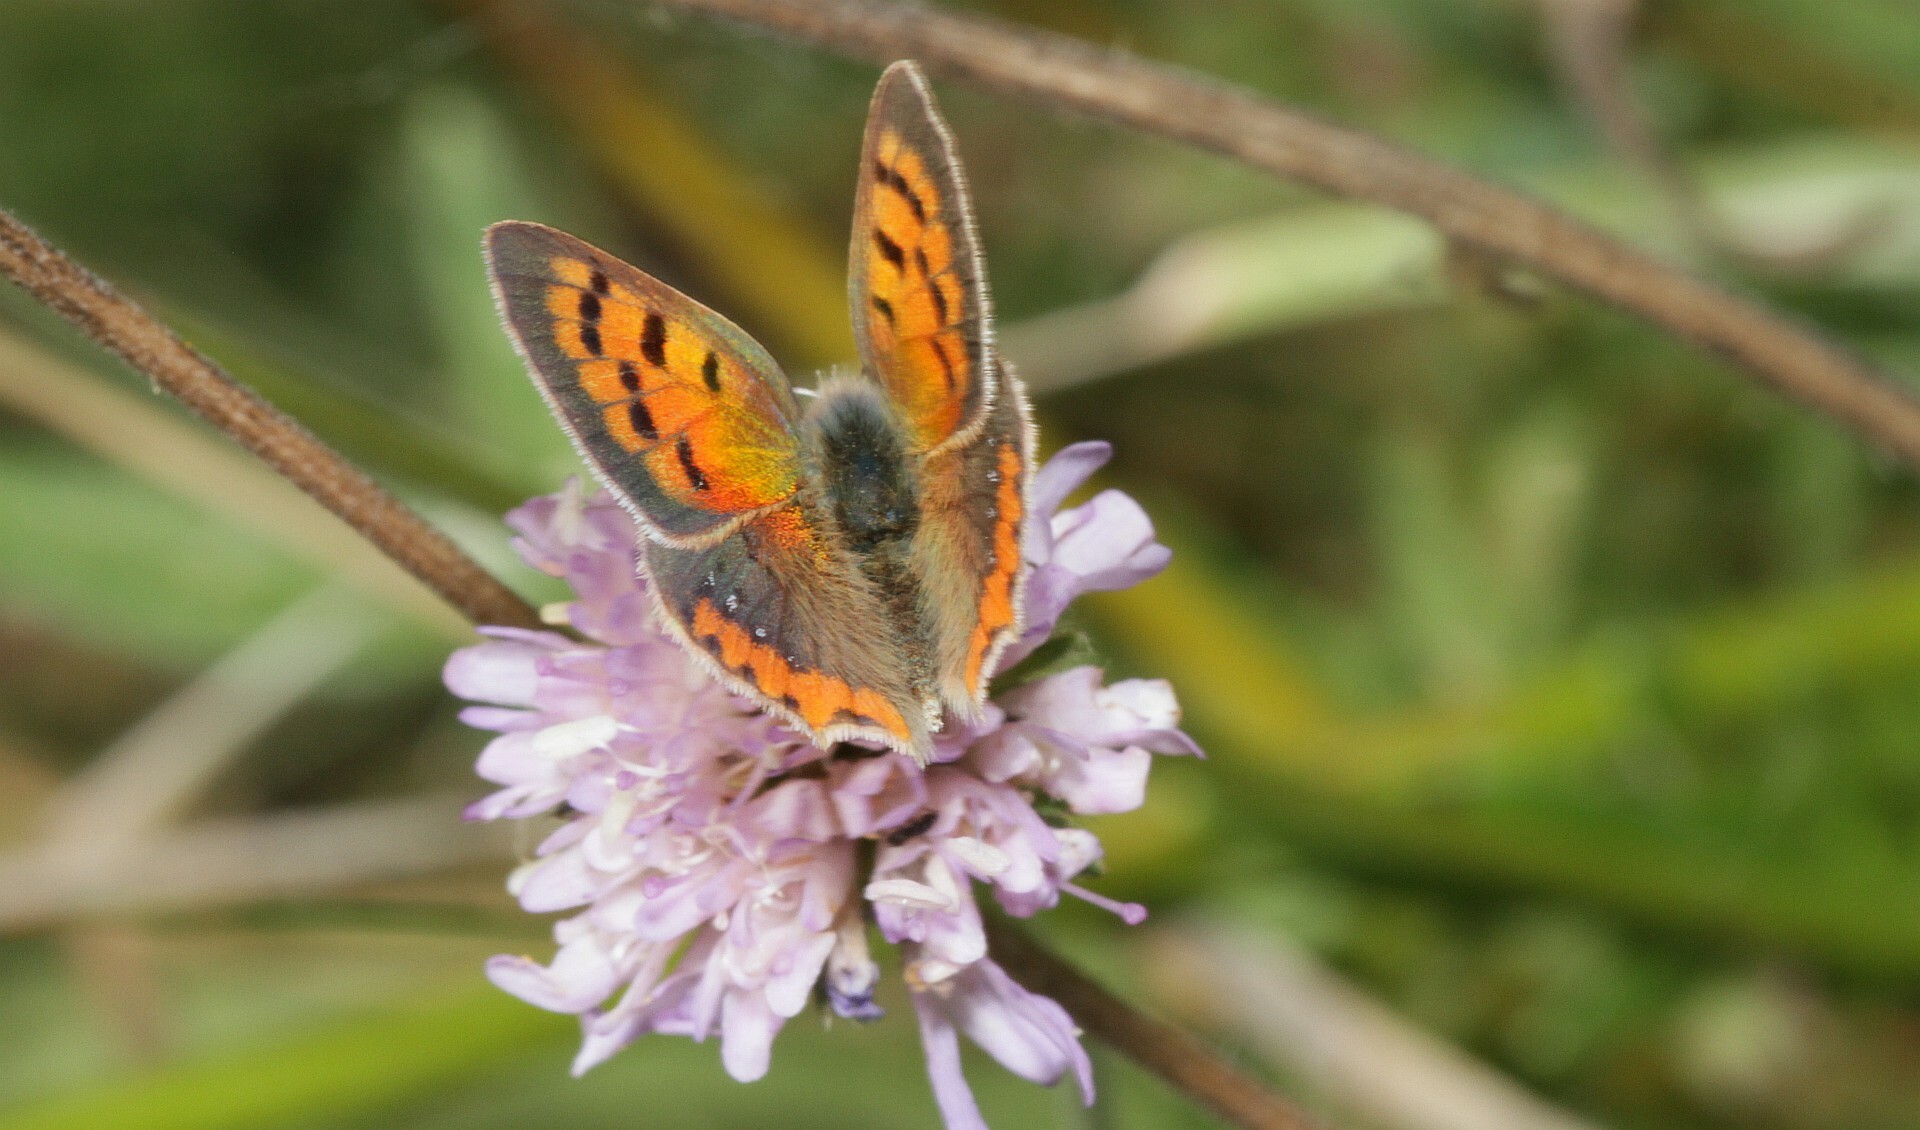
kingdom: Animalia
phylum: Arthropoda
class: Insecta
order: Lepidoptera
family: Lycaenidae
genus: Lycaena
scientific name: Lycaena phlaeas
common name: Small copper
